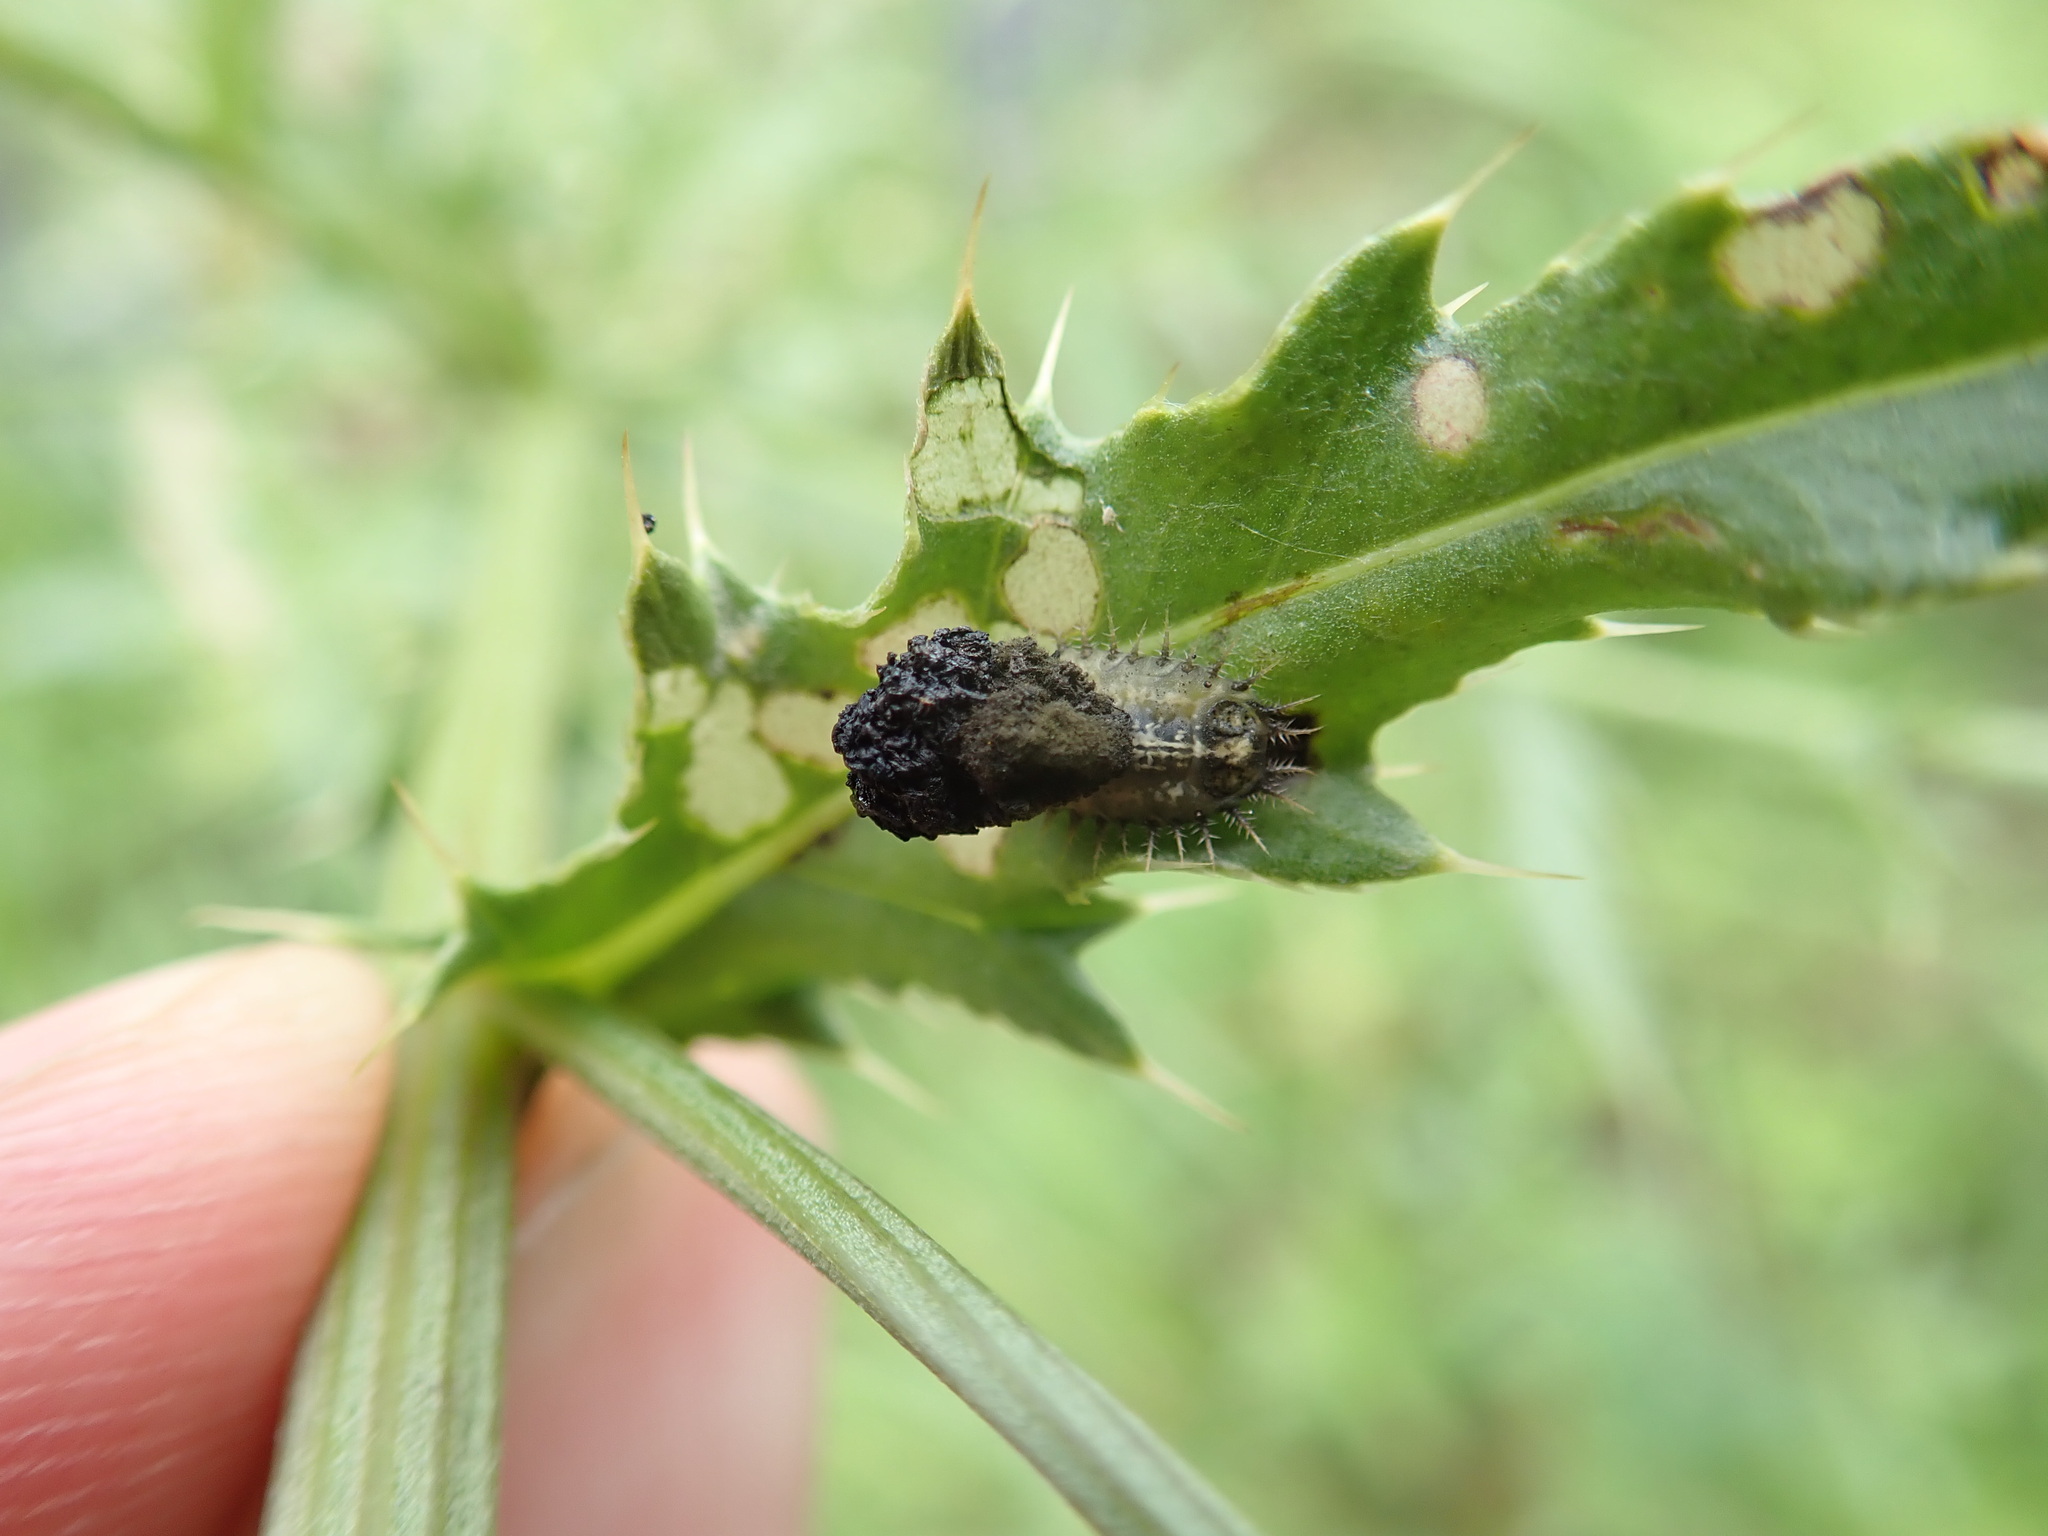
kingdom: Animalia
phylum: Arthropoda
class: Insecta
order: Coleoptera
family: Chrysomelidae
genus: Cassida
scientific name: Cassida rubiginosa
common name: Thistle tortoise beetle
